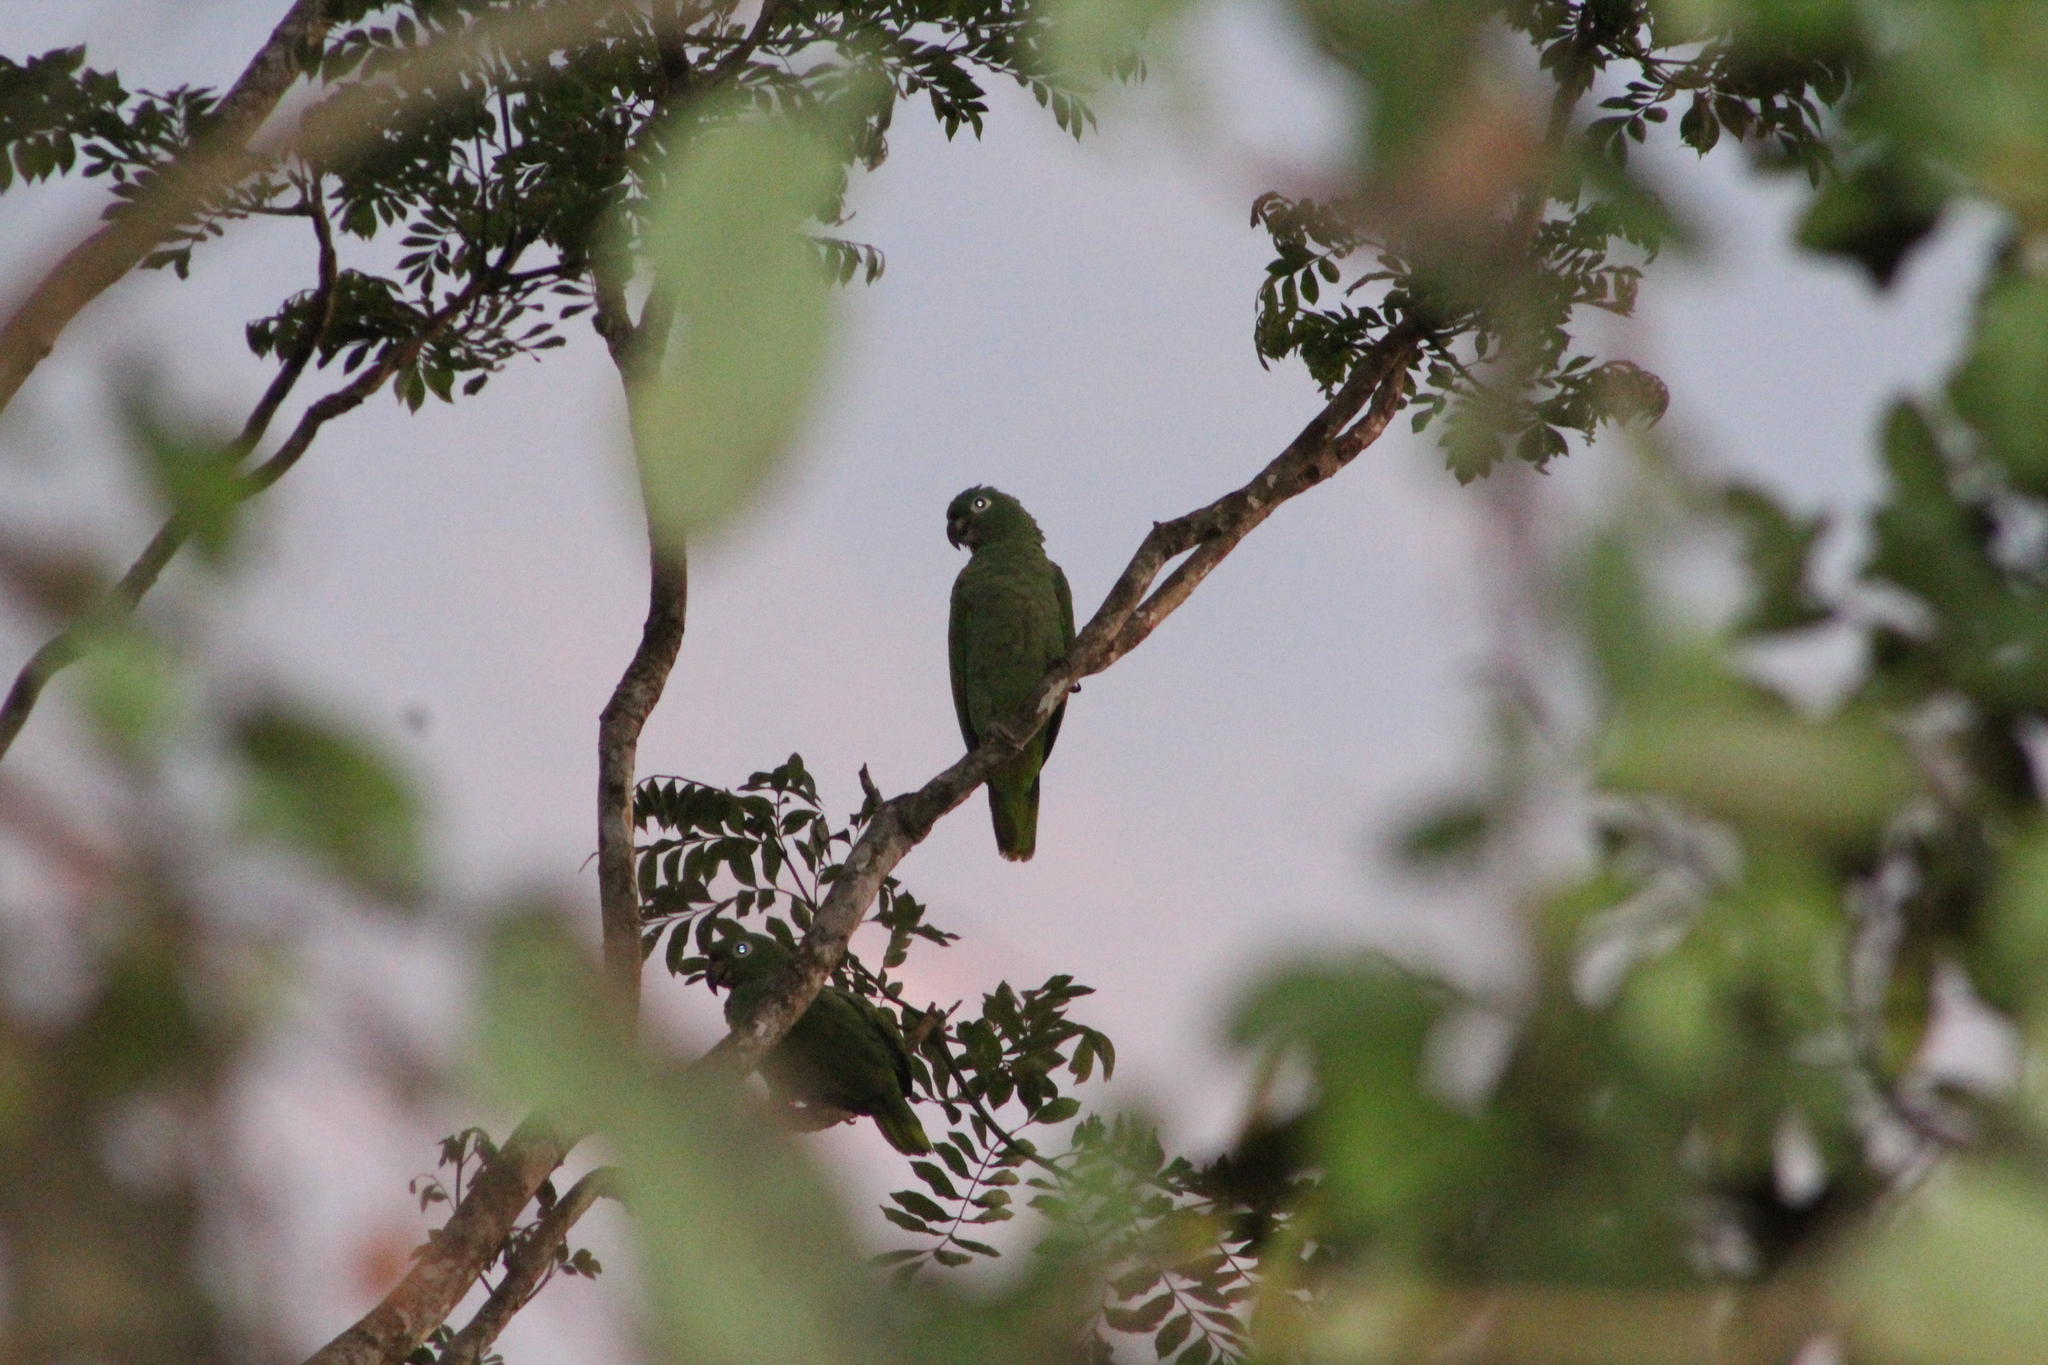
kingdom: Animalia
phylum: Chordata
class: Aves
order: Psittaciformes
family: Psittacidae
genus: Amazona
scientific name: Amazona farinosa
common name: Mealy parrot
